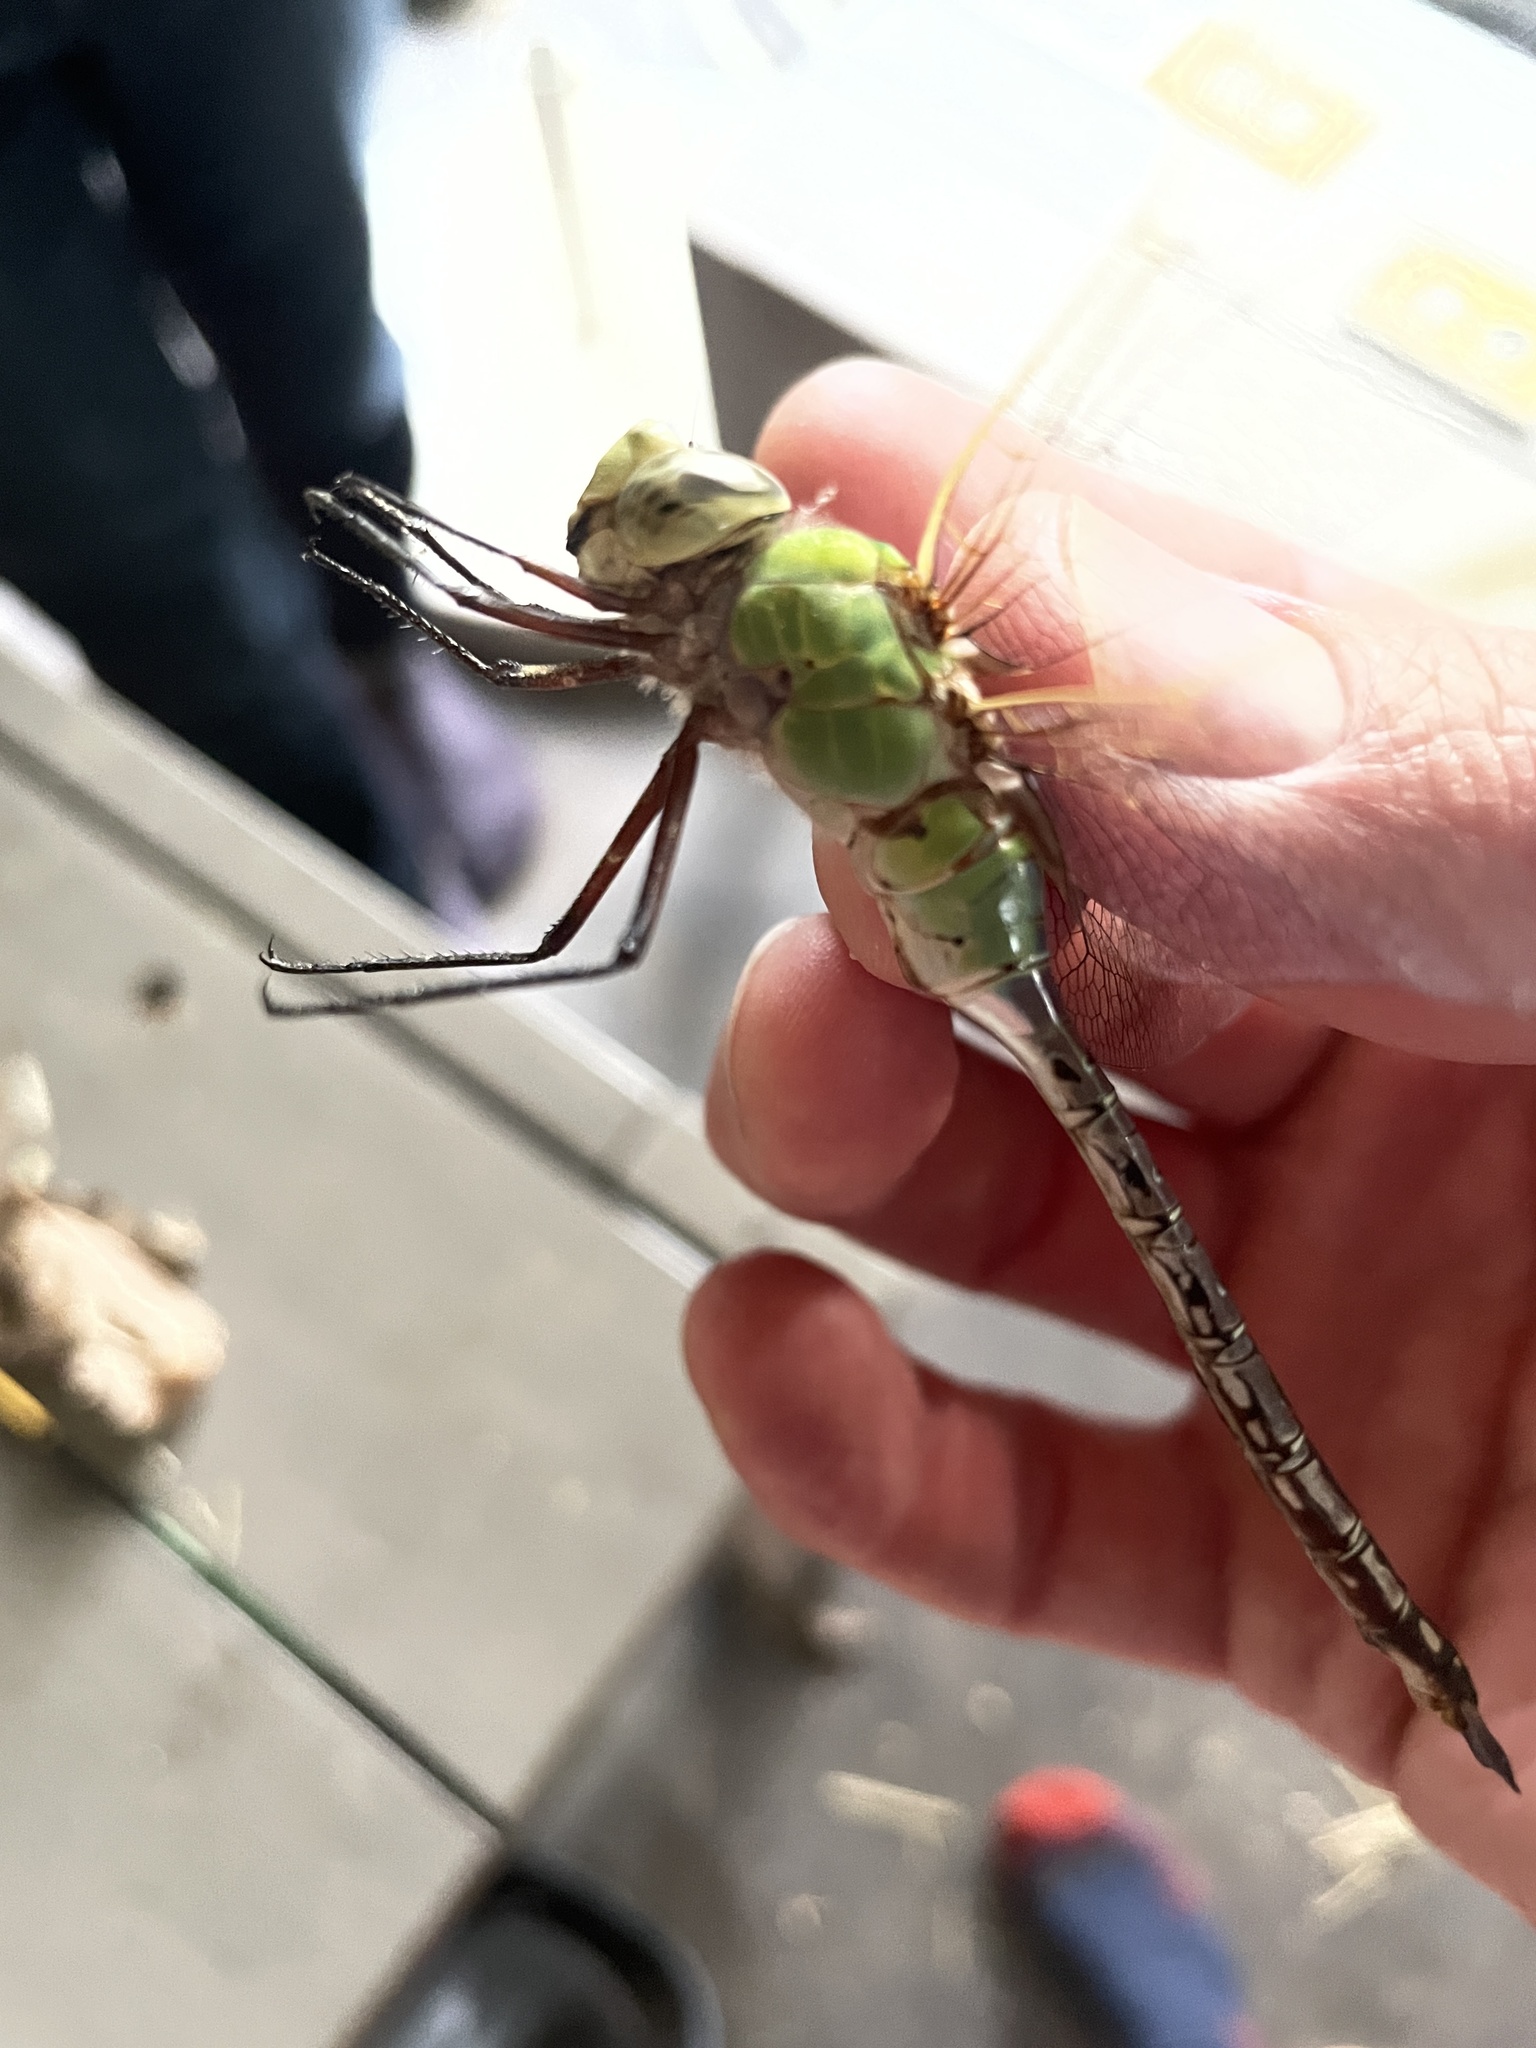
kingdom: Animalia
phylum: Arthropoda
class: Insecta
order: Odonata
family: Aeshnidae
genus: Anax
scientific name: Anax junius
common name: Common green darner
